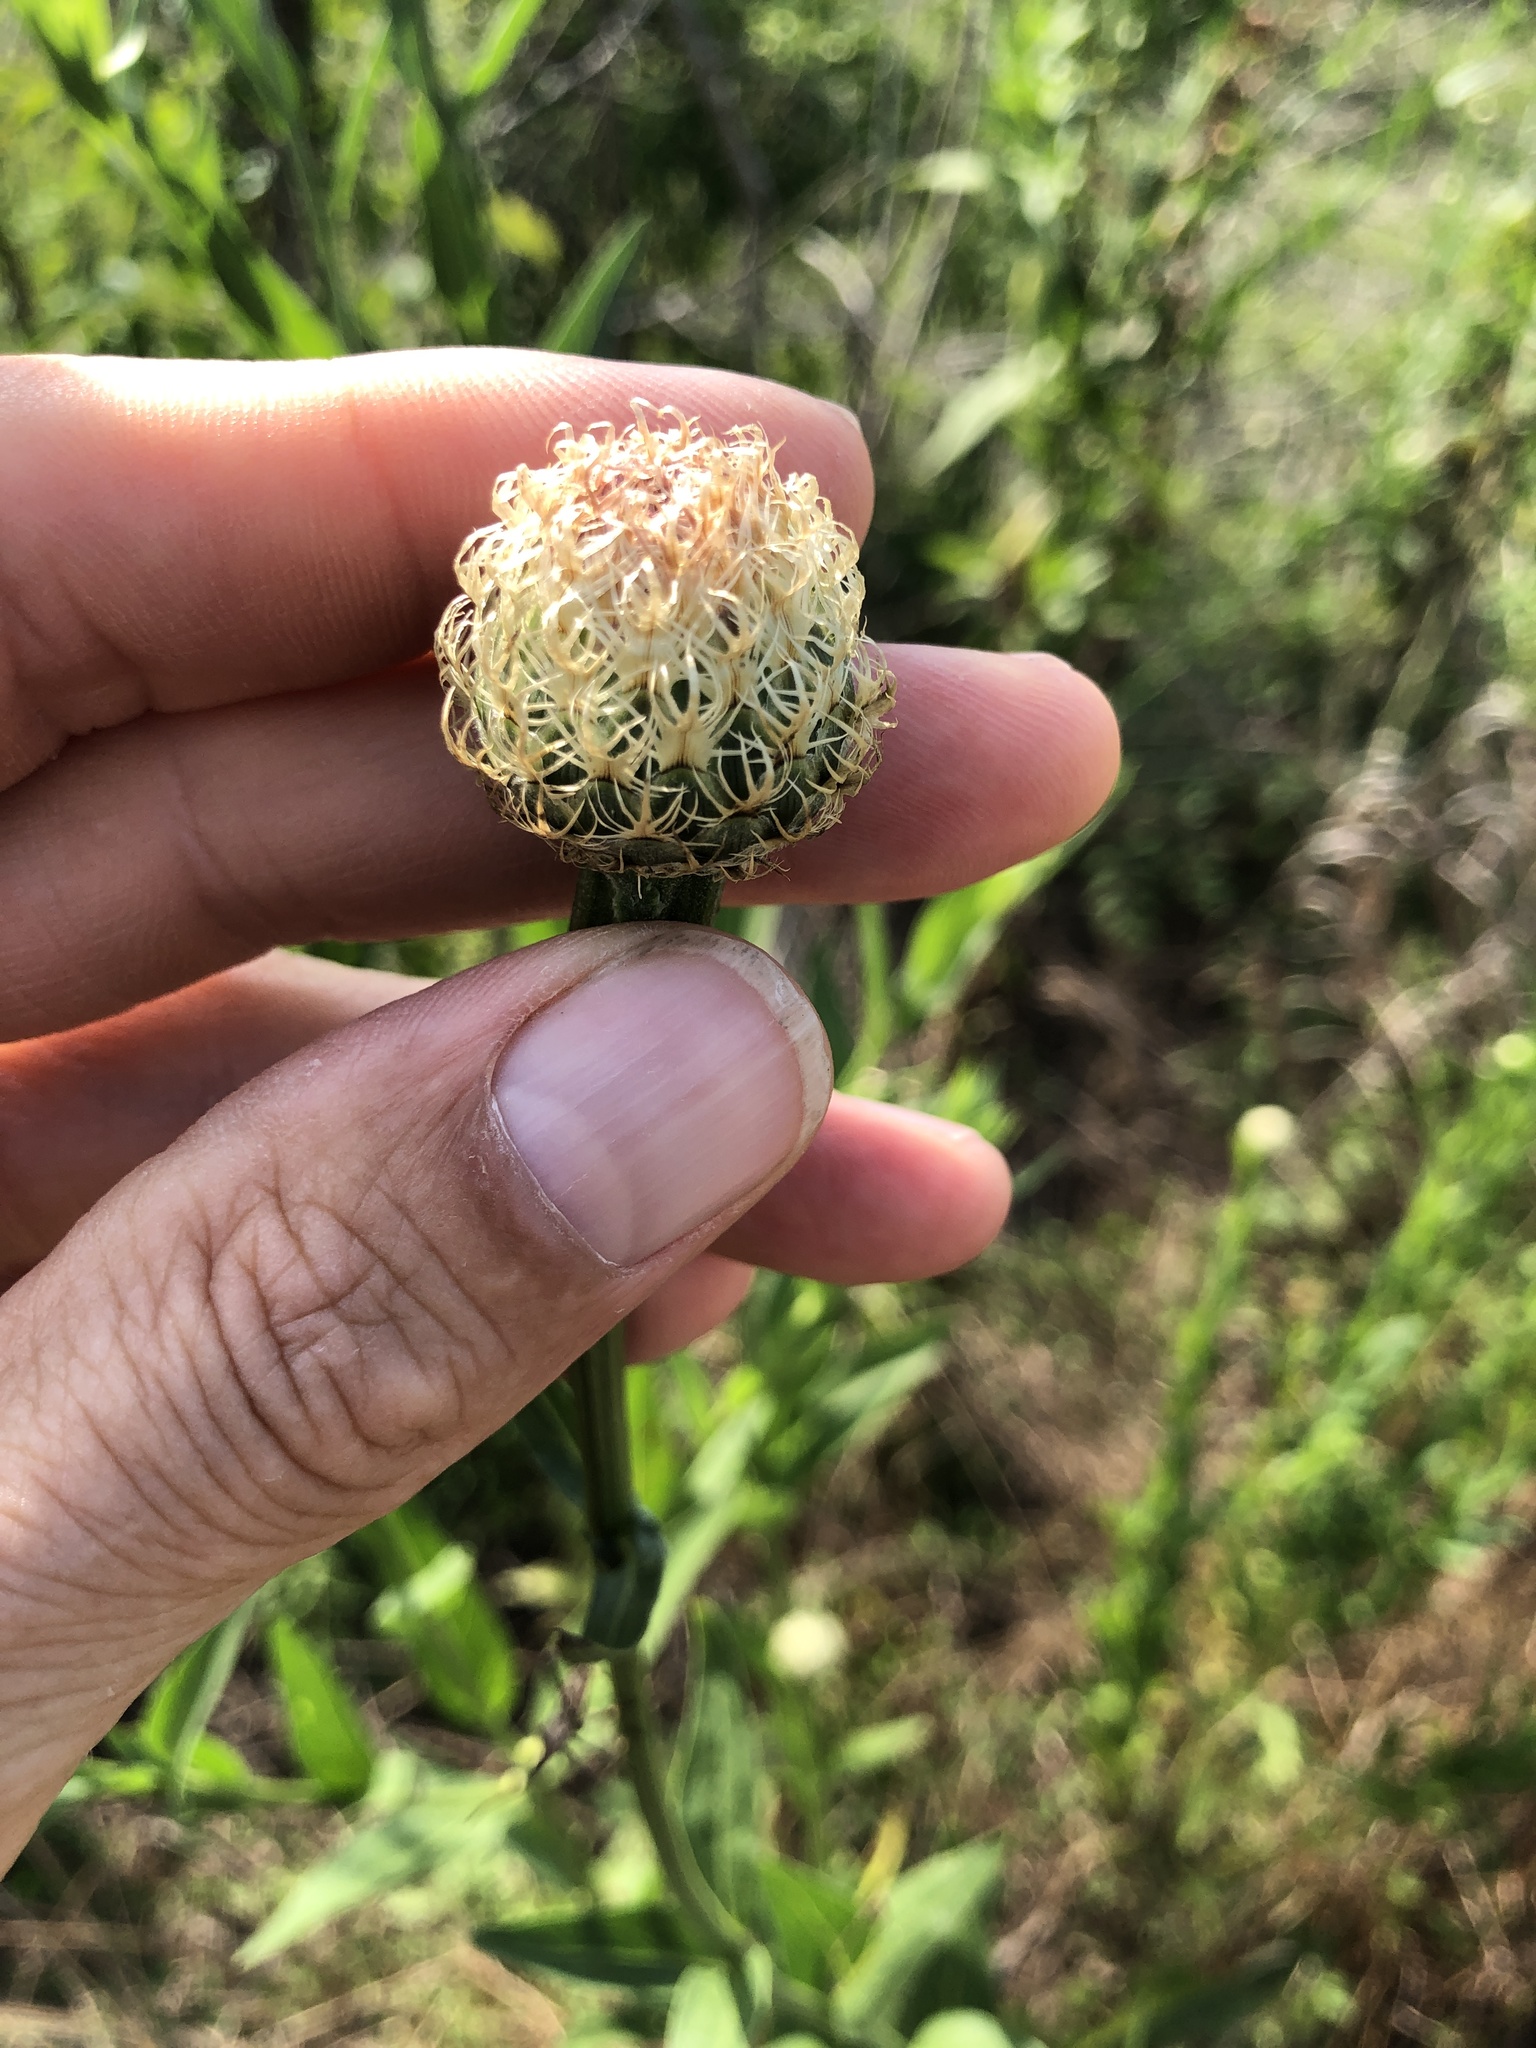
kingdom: Plantae
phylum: Tracheophyta
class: Magnoliopsida
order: Asterales
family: Asteraceae
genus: Plectocephalus
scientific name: Plectocephalus americanus
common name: American basket-flower
